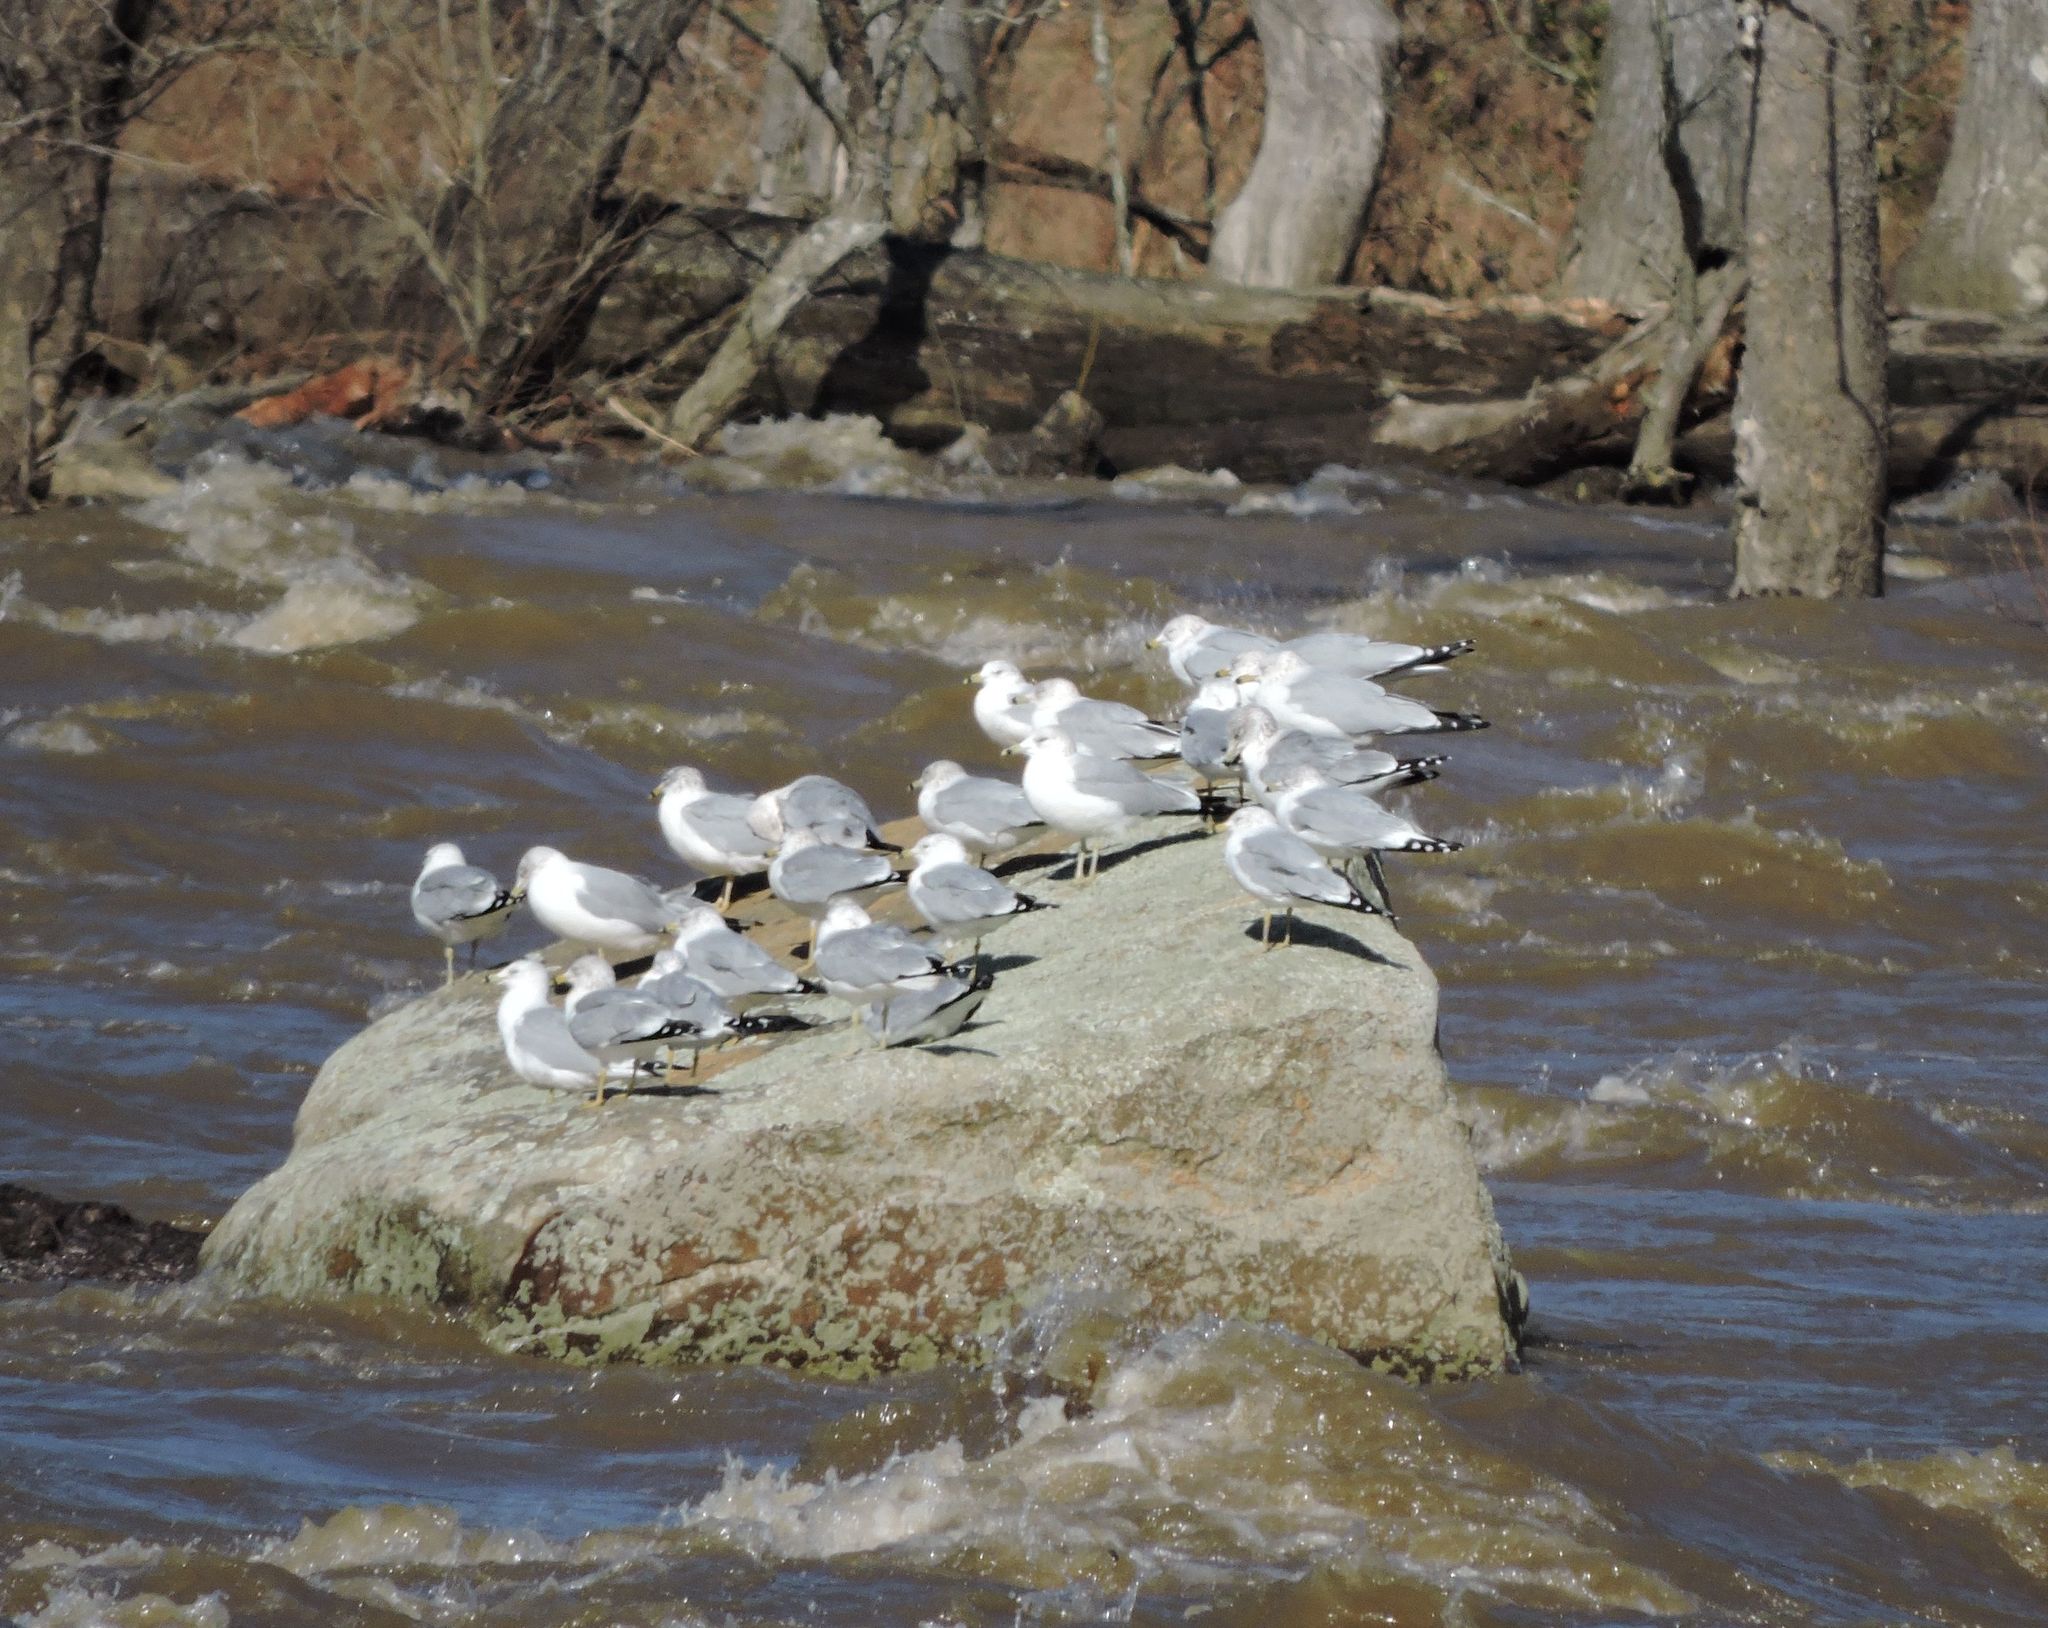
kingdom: Animalia
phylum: Chordata
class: Aves
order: Charadriiformes
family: Laridae
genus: Larus
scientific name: Larus delawarensis
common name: Ring-billed gull
